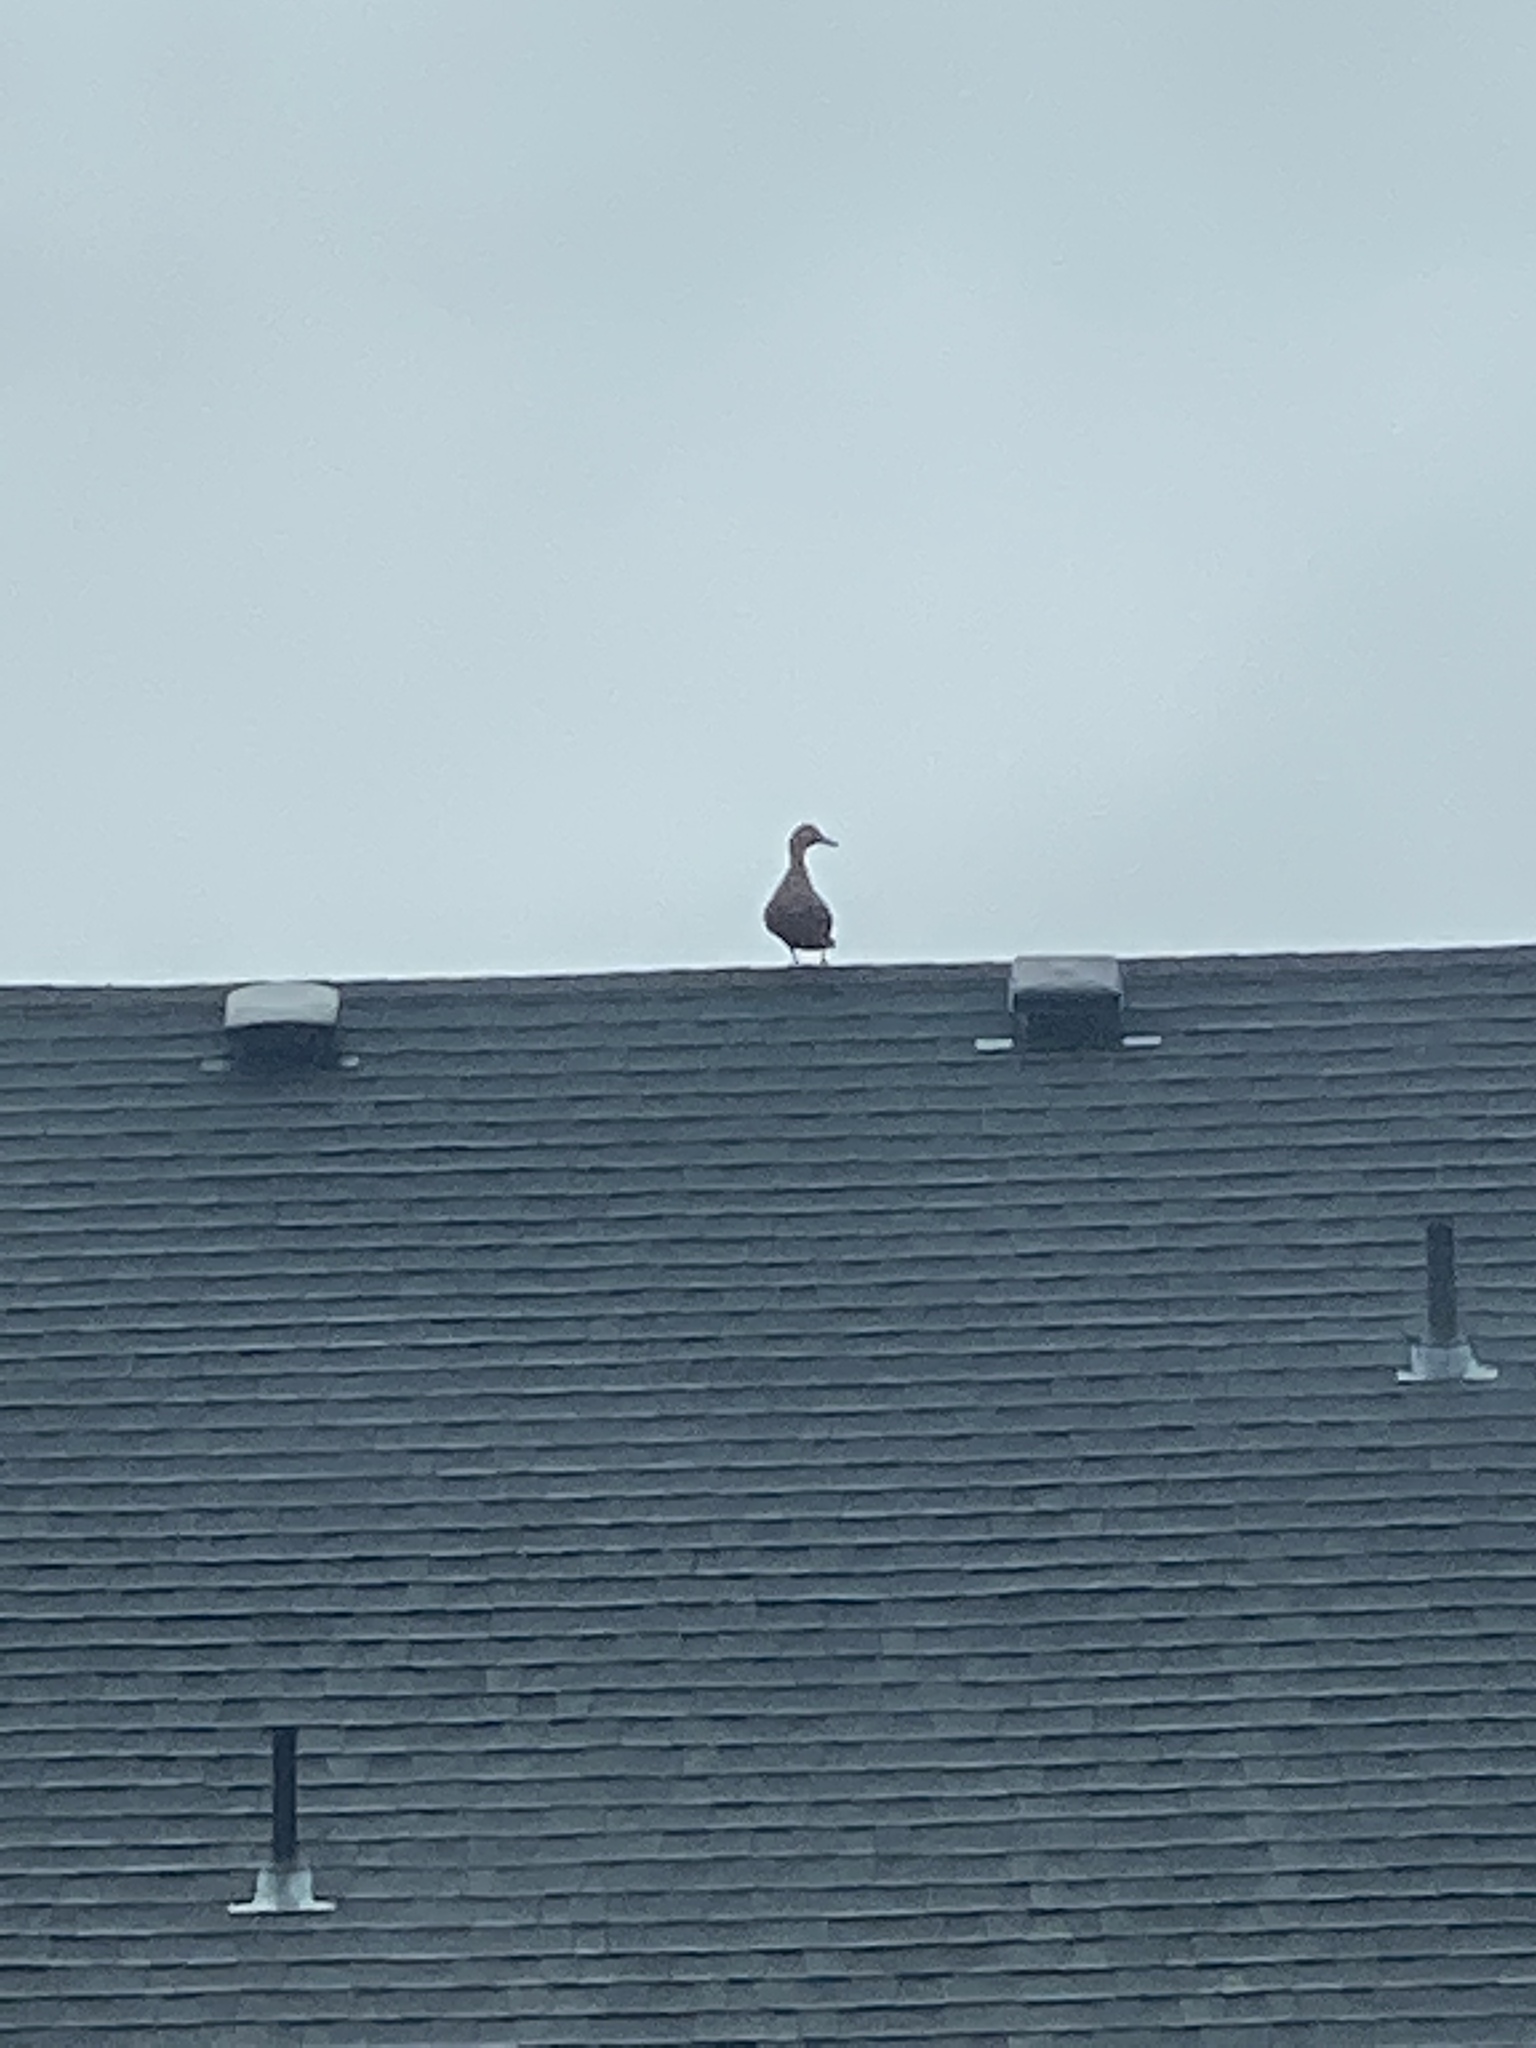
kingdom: Animalia
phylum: Chordata
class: Aves
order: Anseriformes
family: Anatidae
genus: Anas
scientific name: Anas platyrhynchos
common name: Mallard
